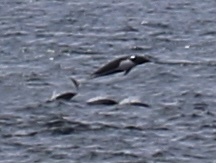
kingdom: Animalia
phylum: Chordata
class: Mammalia
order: Cetacea
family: Delphinidae
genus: Lissodelphis
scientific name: Lissodelphis borealis
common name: Northern right whale dolphin
